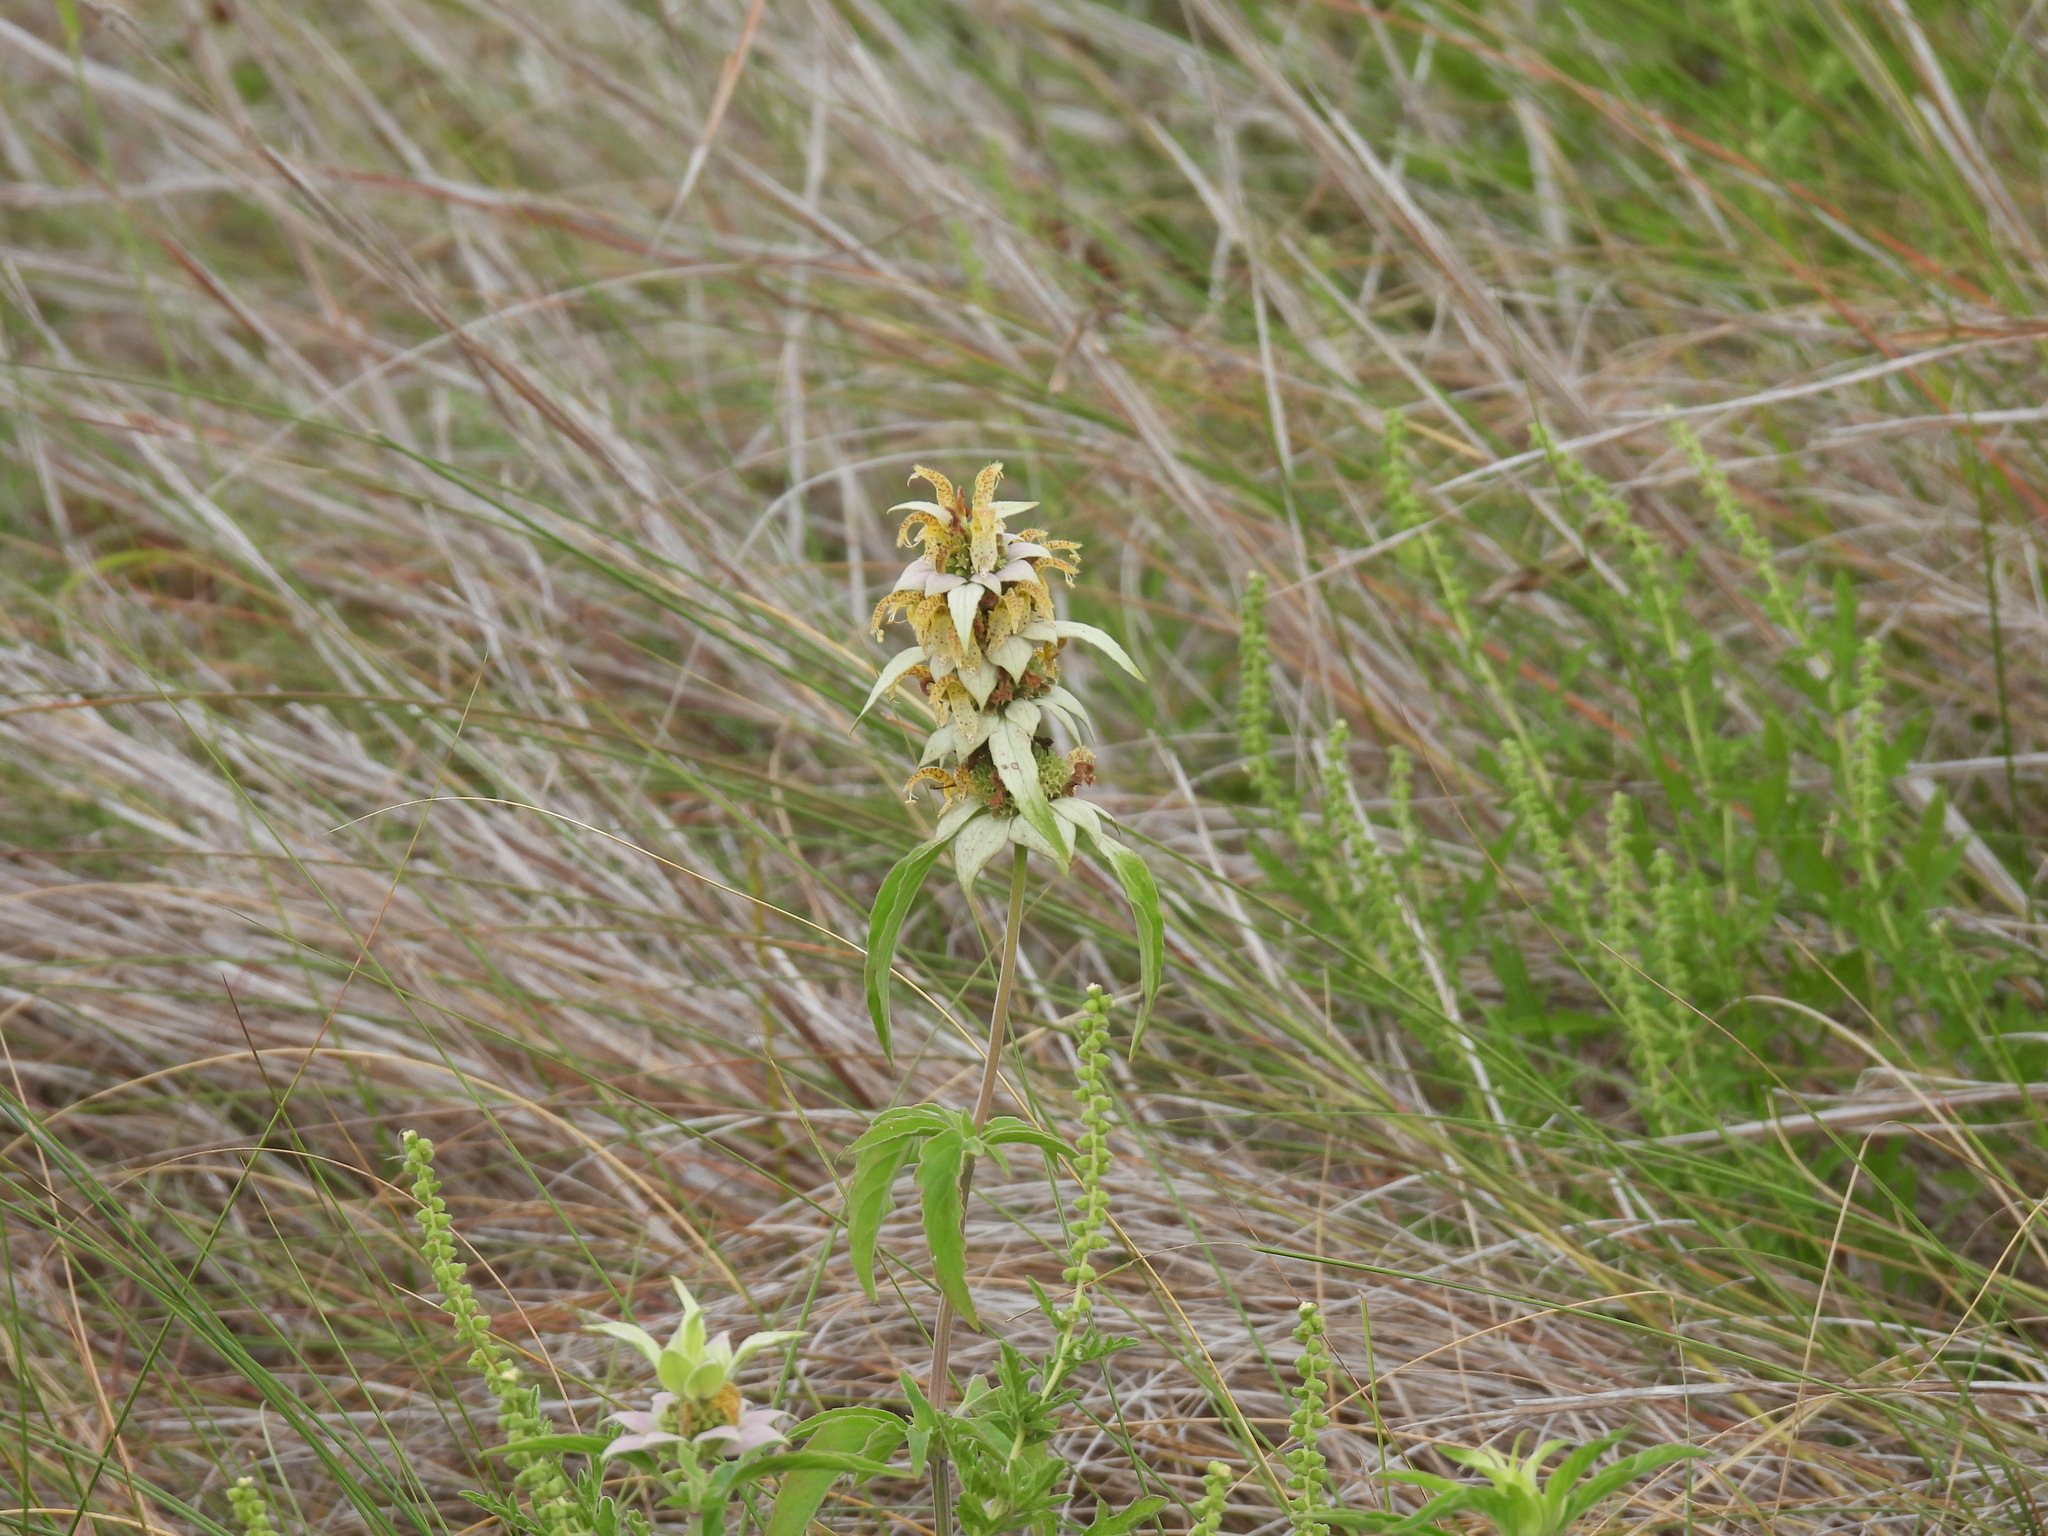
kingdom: Plantae
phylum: Tracheophyta
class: Magnoliopsida
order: Lamiales
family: Lamiaceae
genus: Monarda
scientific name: Monarda punctata
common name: Dotted monarda
